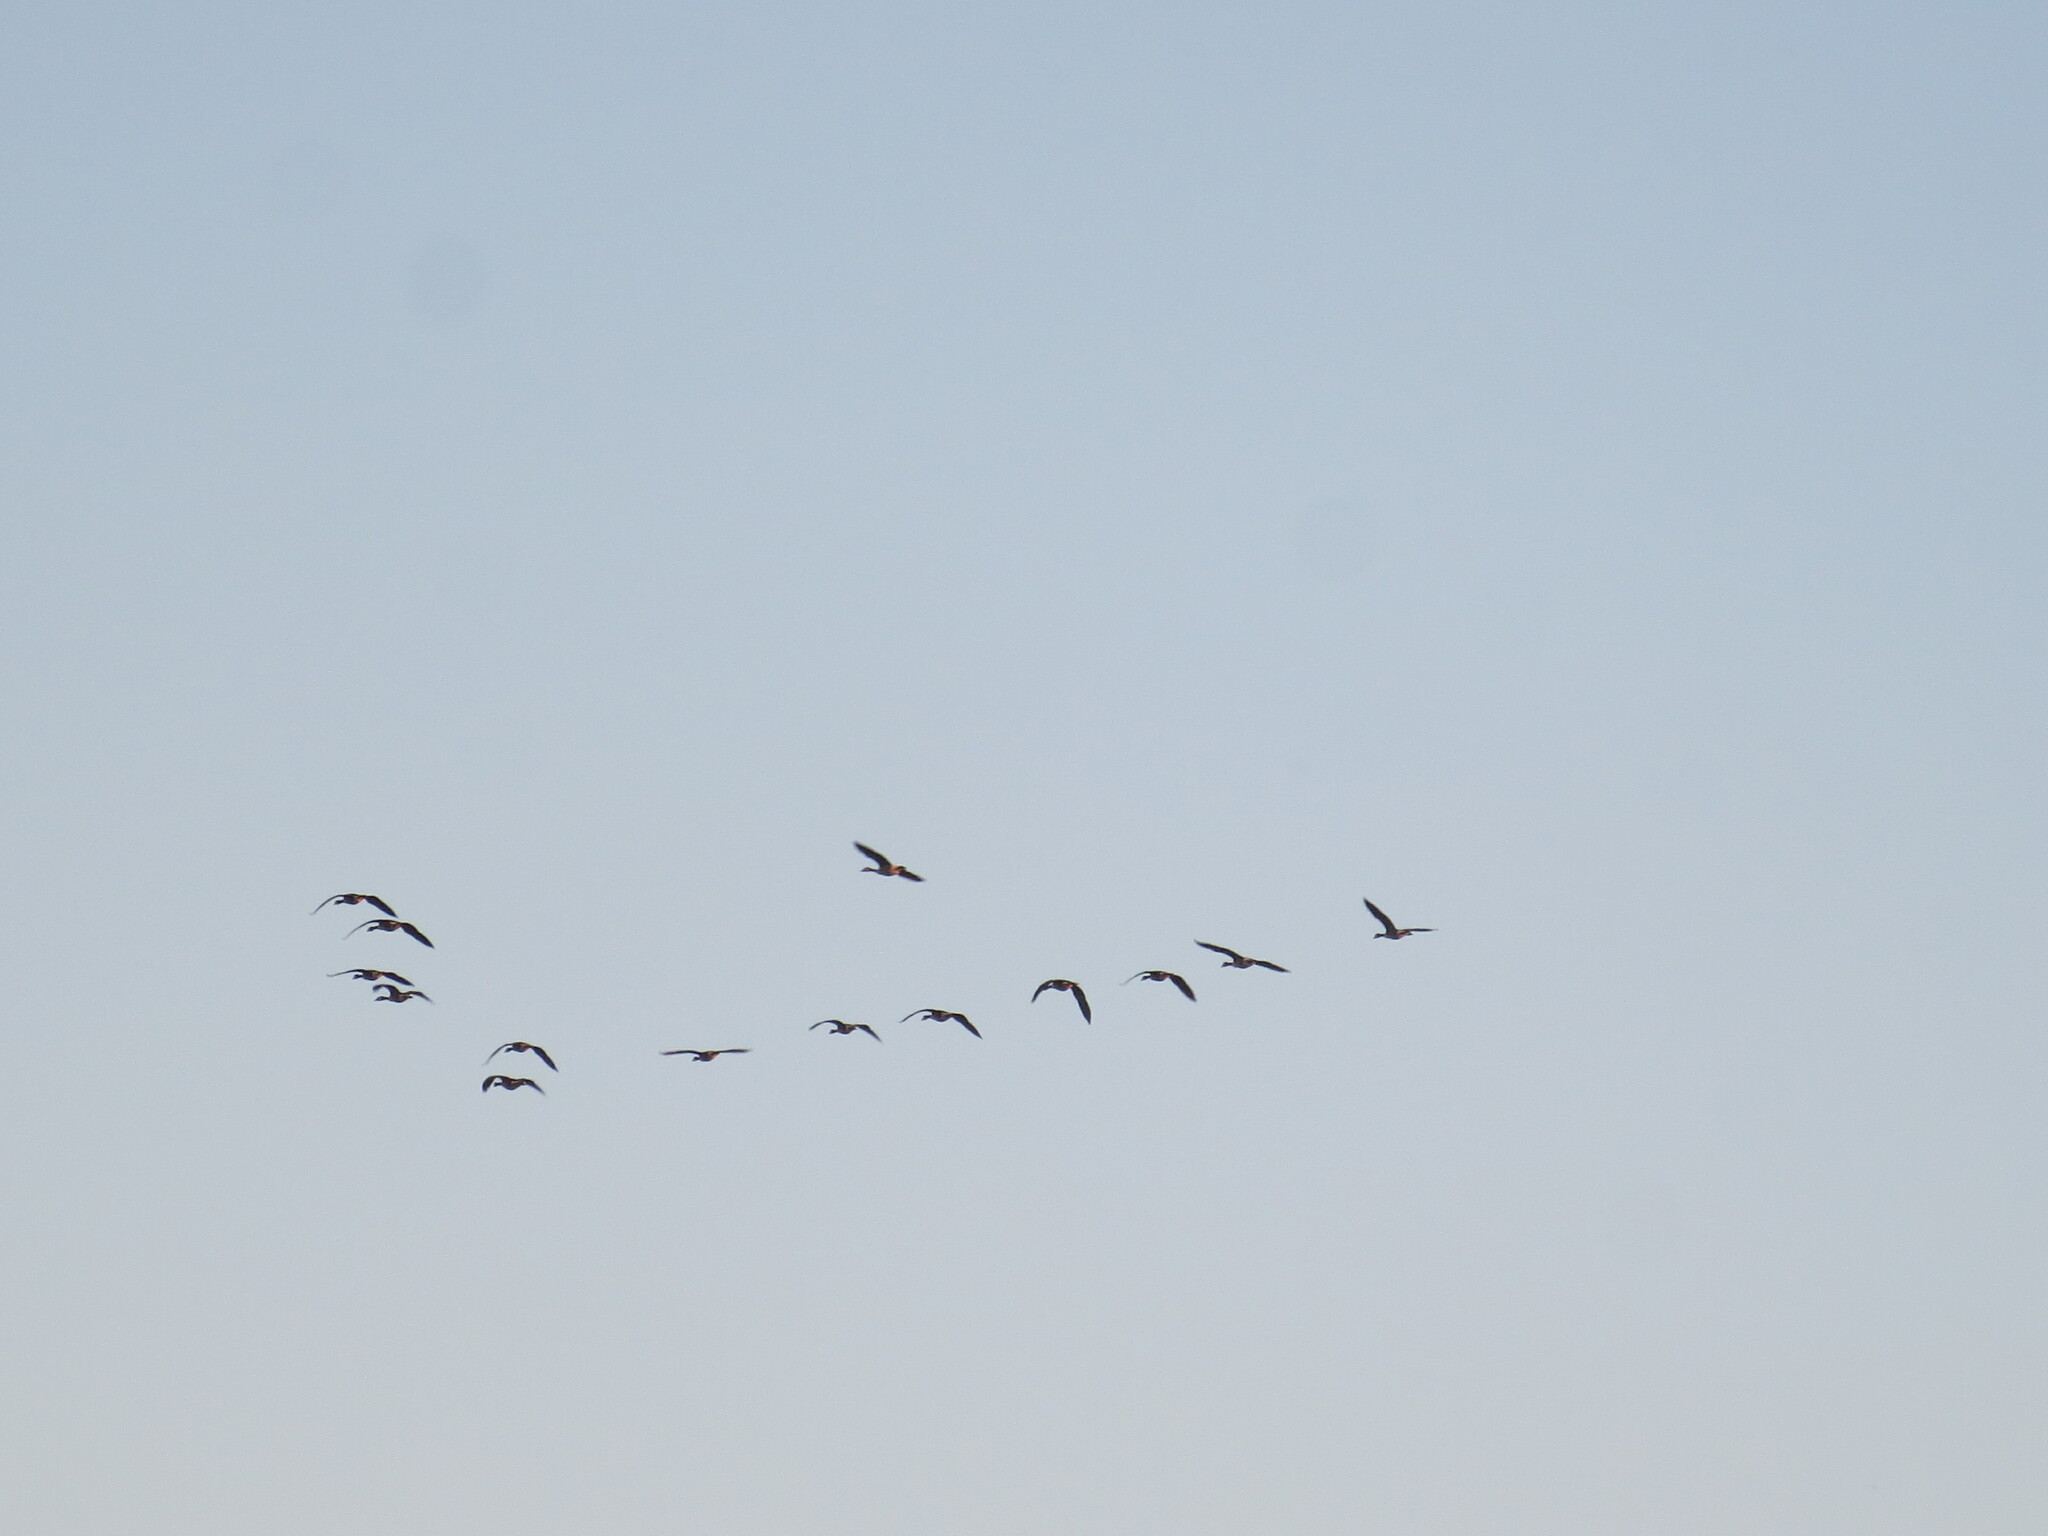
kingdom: Animalia
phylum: Chordata
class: Aves
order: Anseriformes
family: Anatidae
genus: Branta
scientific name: Branta canadensis
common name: Canada goose
